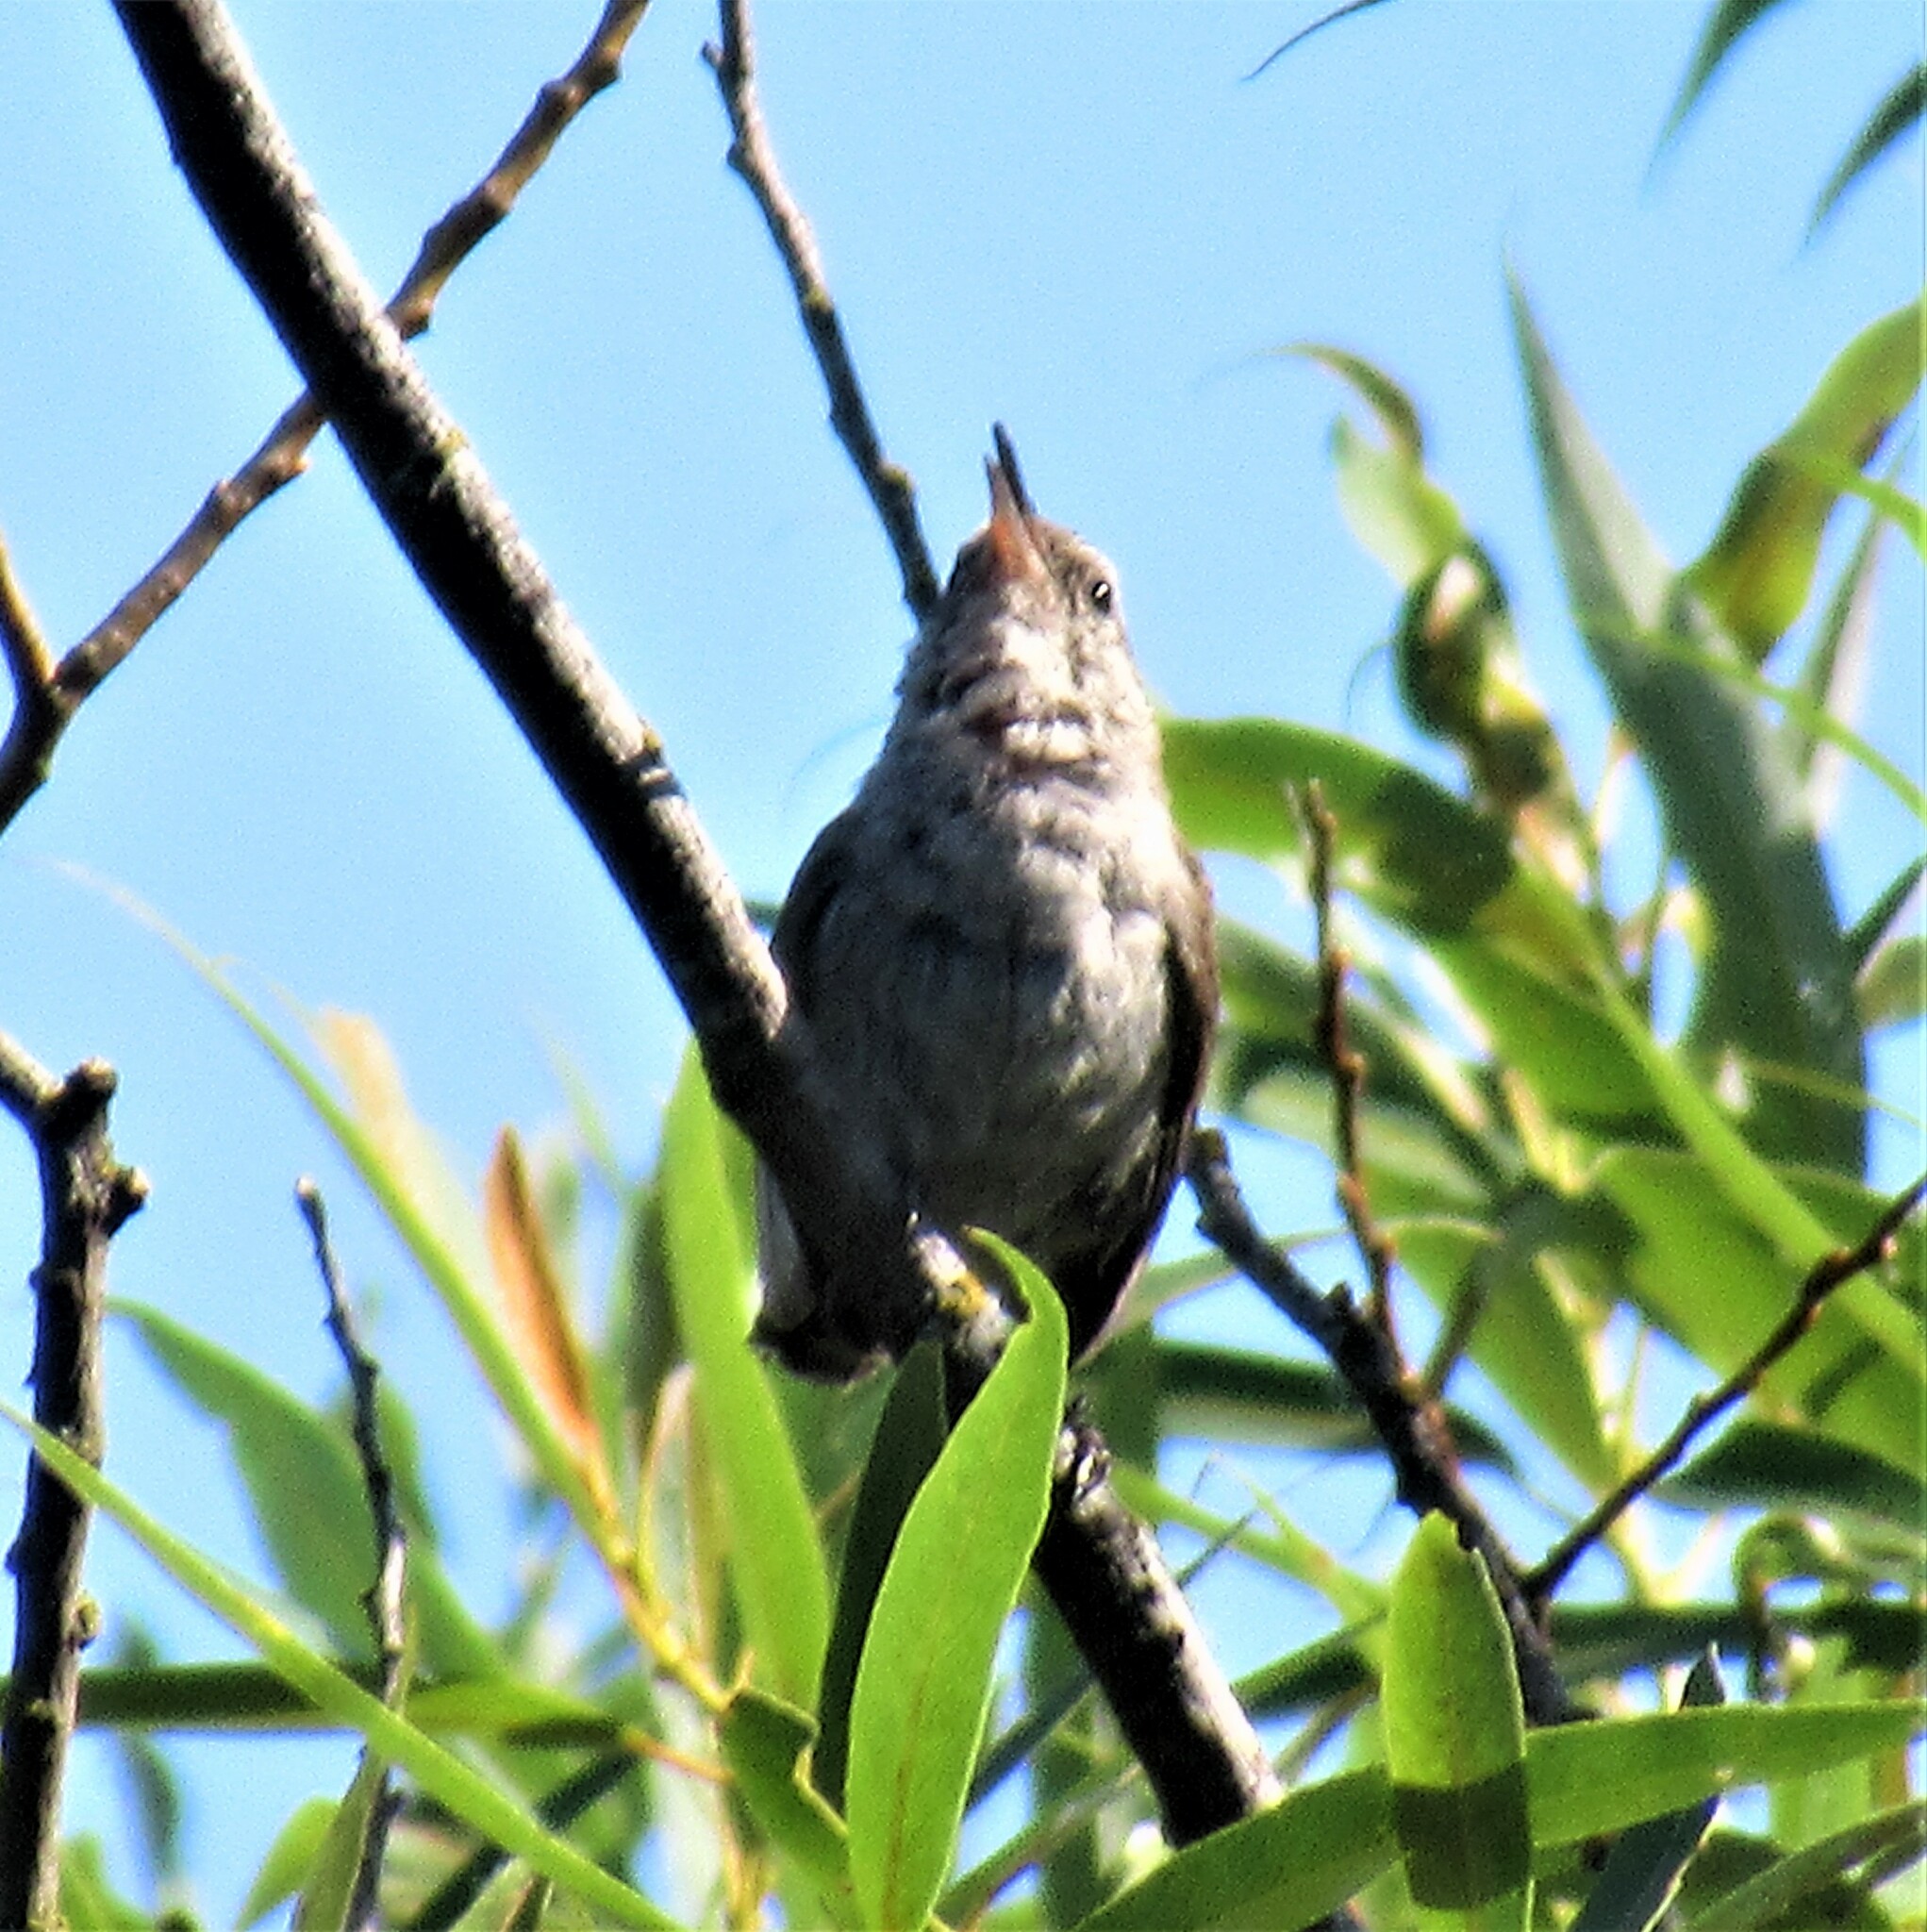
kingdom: Animalia
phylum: Chordata
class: Aves
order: Passeriformes
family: Troglodytidae
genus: Thryomanes
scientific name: Thryomanes bewickii
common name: Bewick's wren
